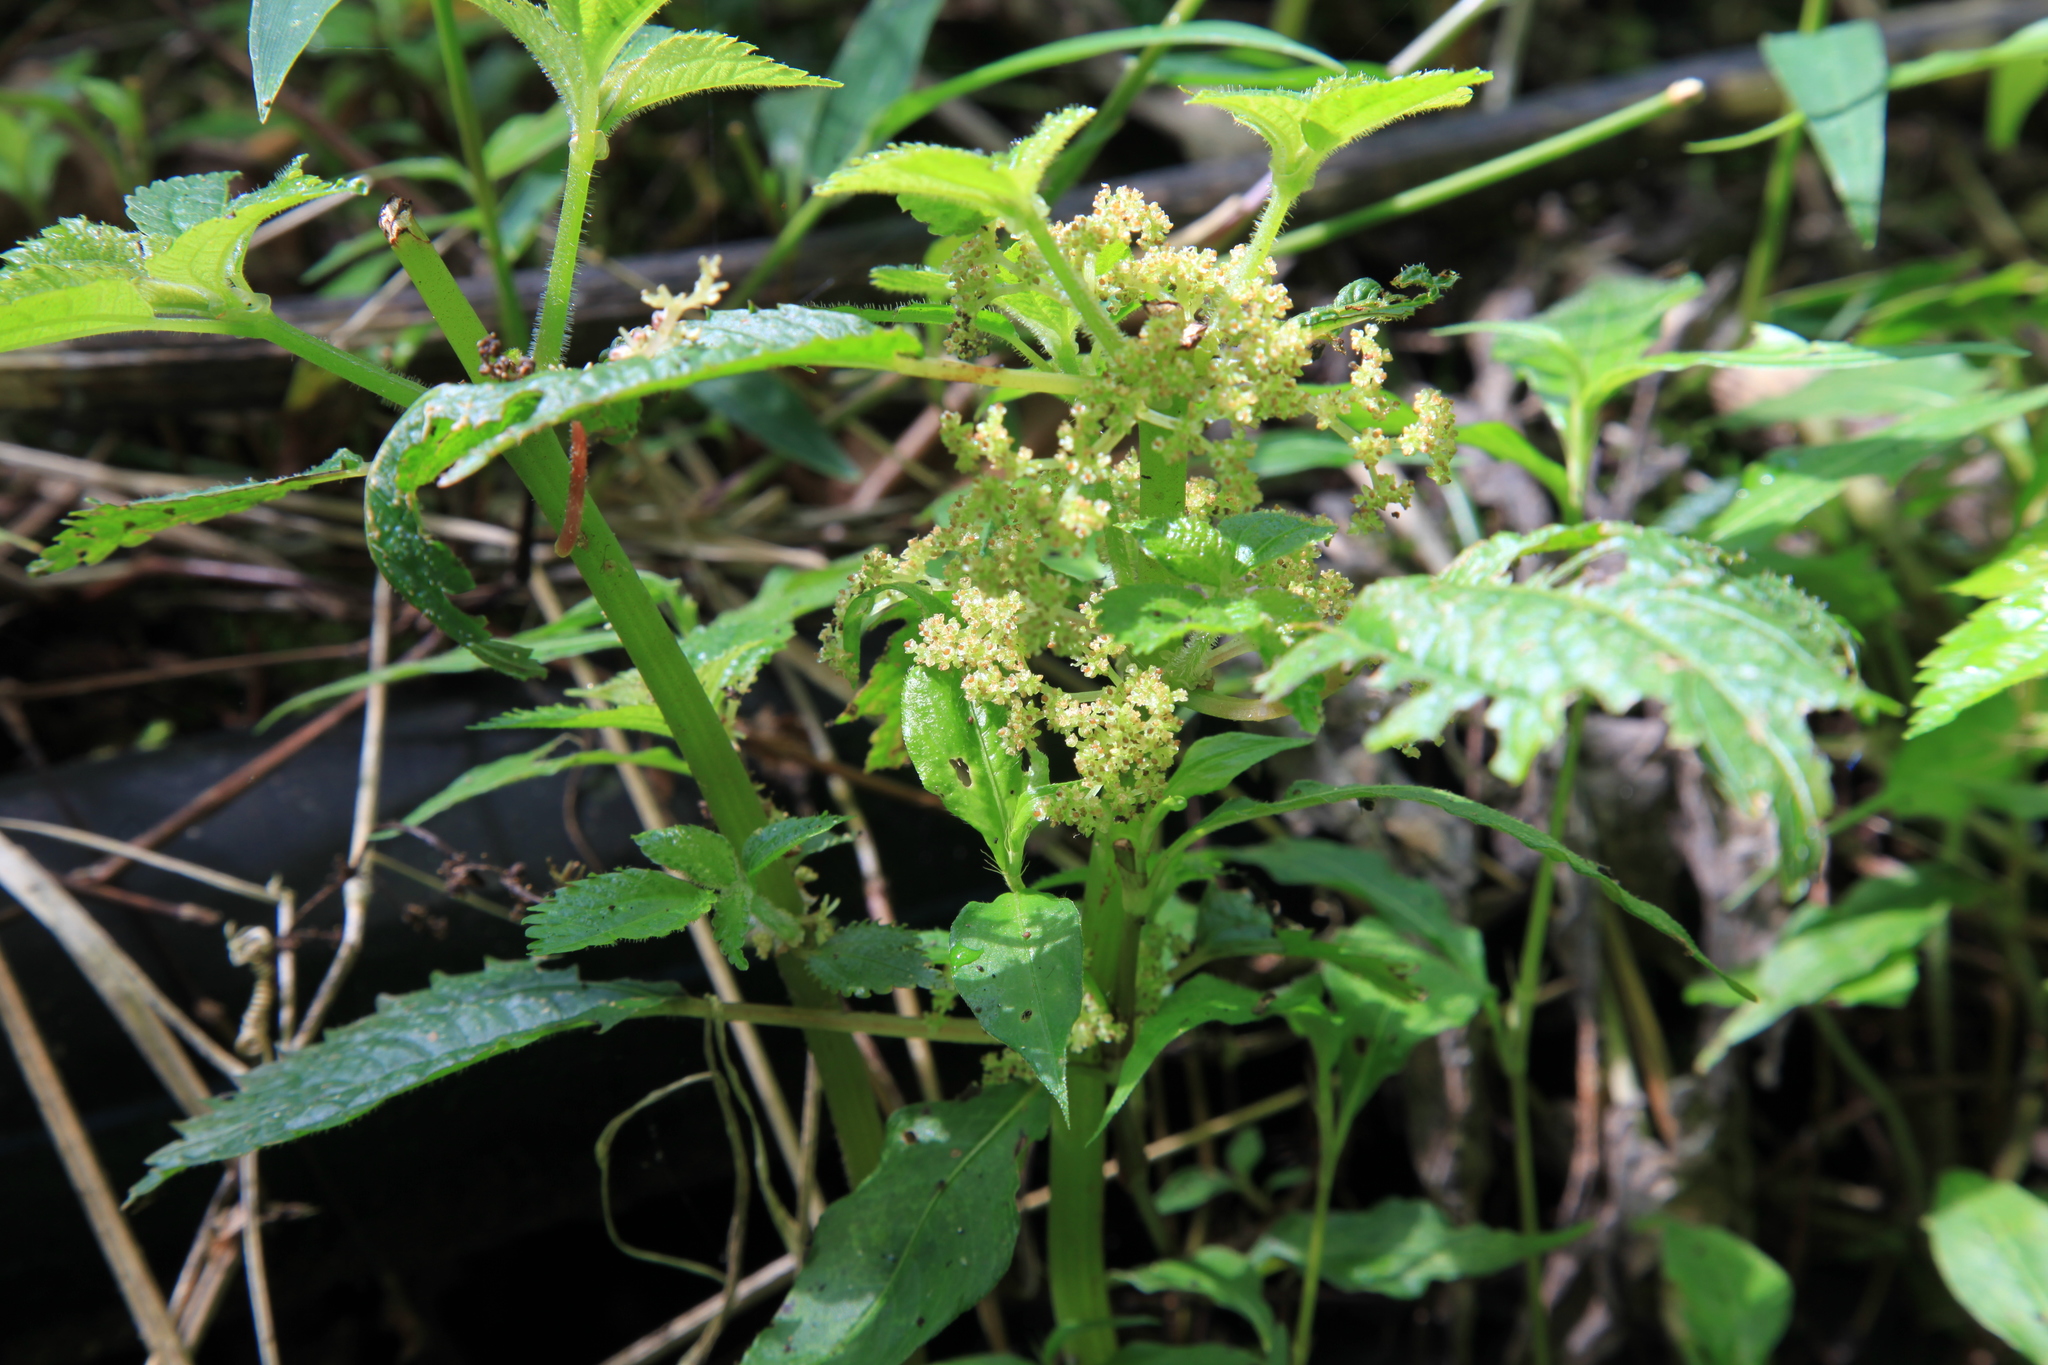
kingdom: Plantae
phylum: Tracheophyta
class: Magnoliopsida
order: Rosales
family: Urticaceae
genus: Pilea
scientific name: Pilea aquarum
